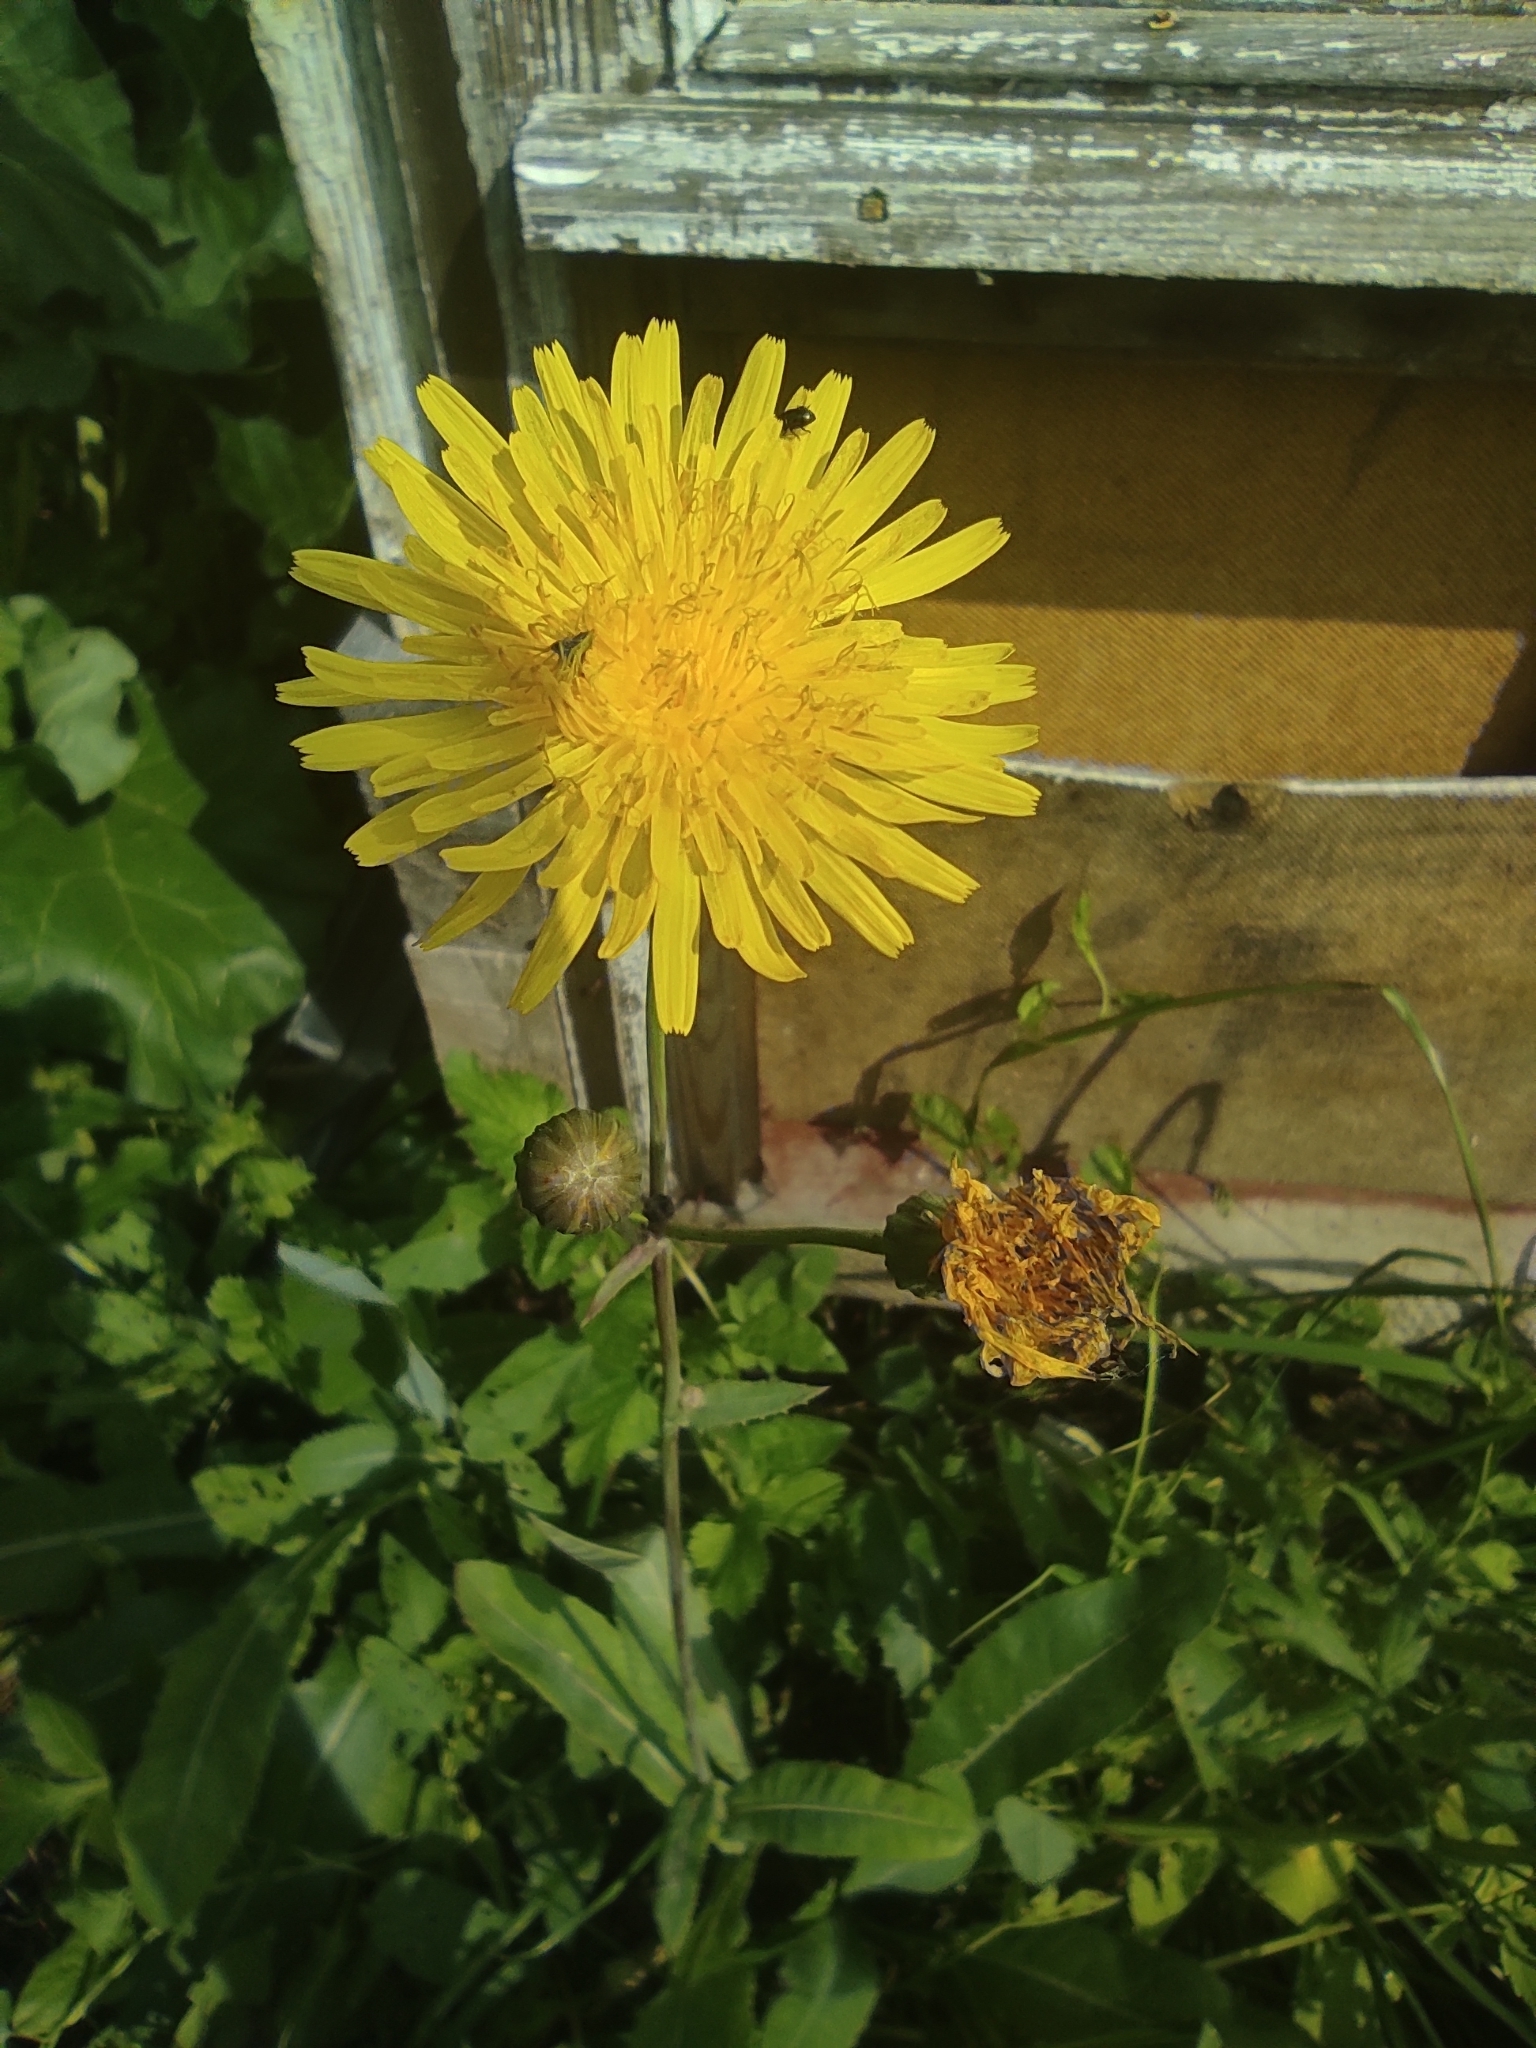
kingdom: Plantae
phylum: Tracheophyta
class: Magnoliopsida
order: Asterales
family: Asteraceae
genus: Sonchus
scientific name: Sonchus arvensis
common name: Perennial sow-thistle
